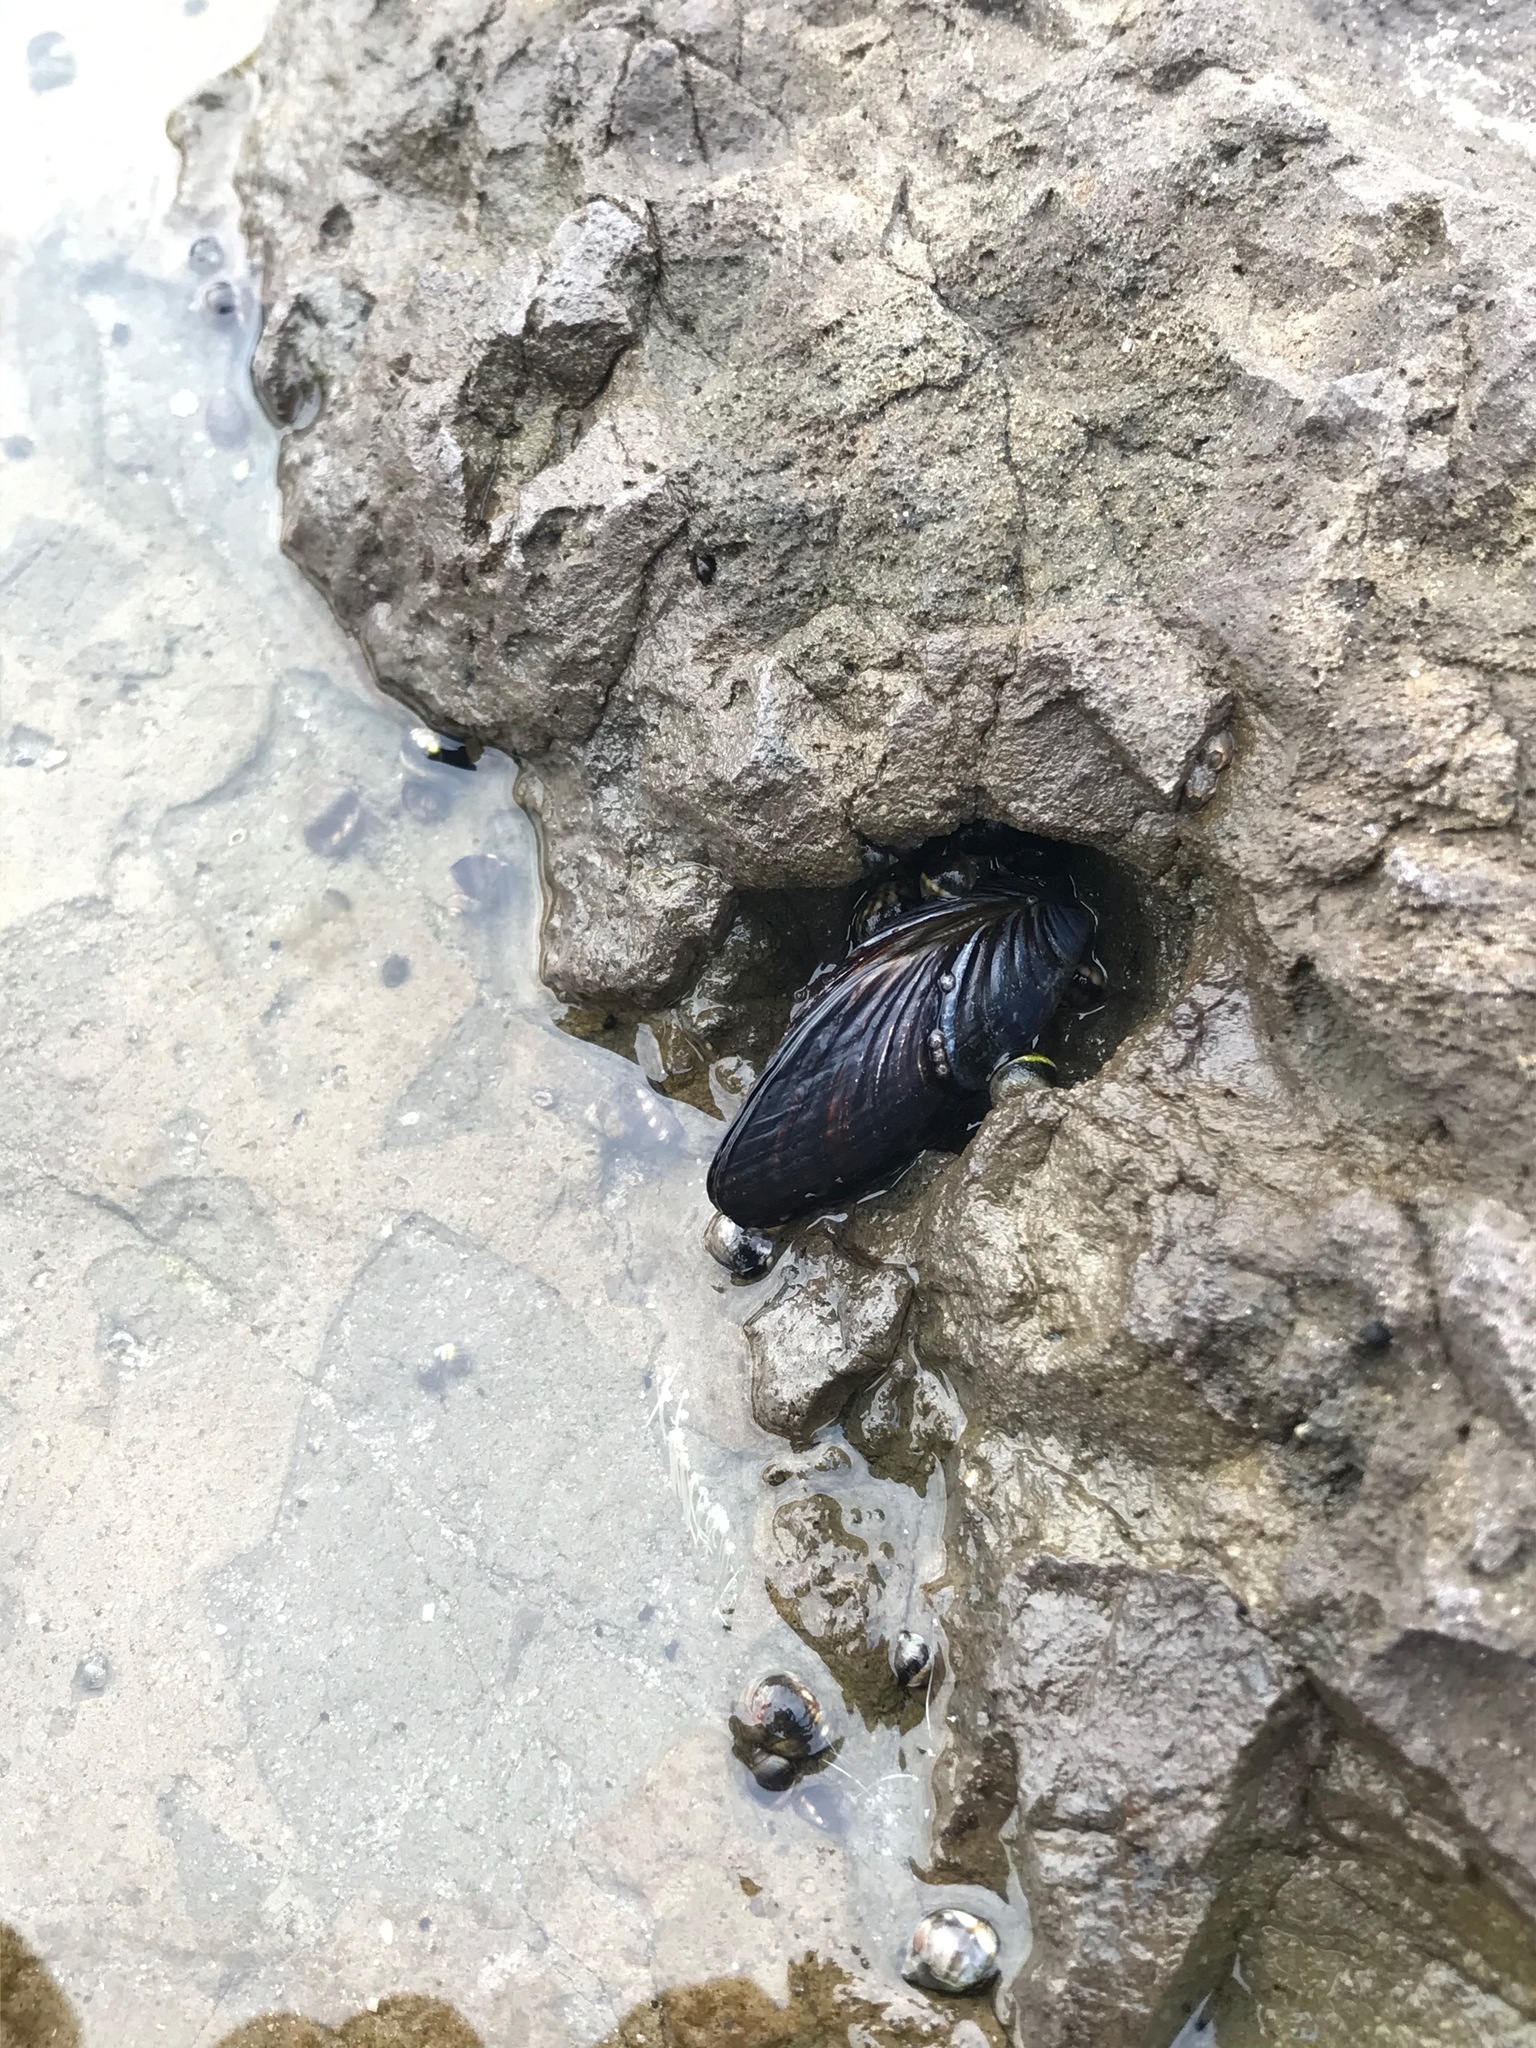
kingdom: Animalia
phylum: Mollusca
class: Bivalvia
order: Mytilida
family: Mytilidae
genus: Mytilus
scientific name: Mytilus californianus
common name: California mussel
